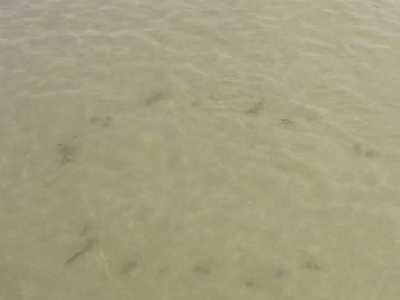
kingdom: Plantae
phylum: Tracheophyta
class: Liliopsida
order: Poales
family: Poaceae
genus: Uniola
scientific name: Uniola paniculata
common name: Seaside-oats
